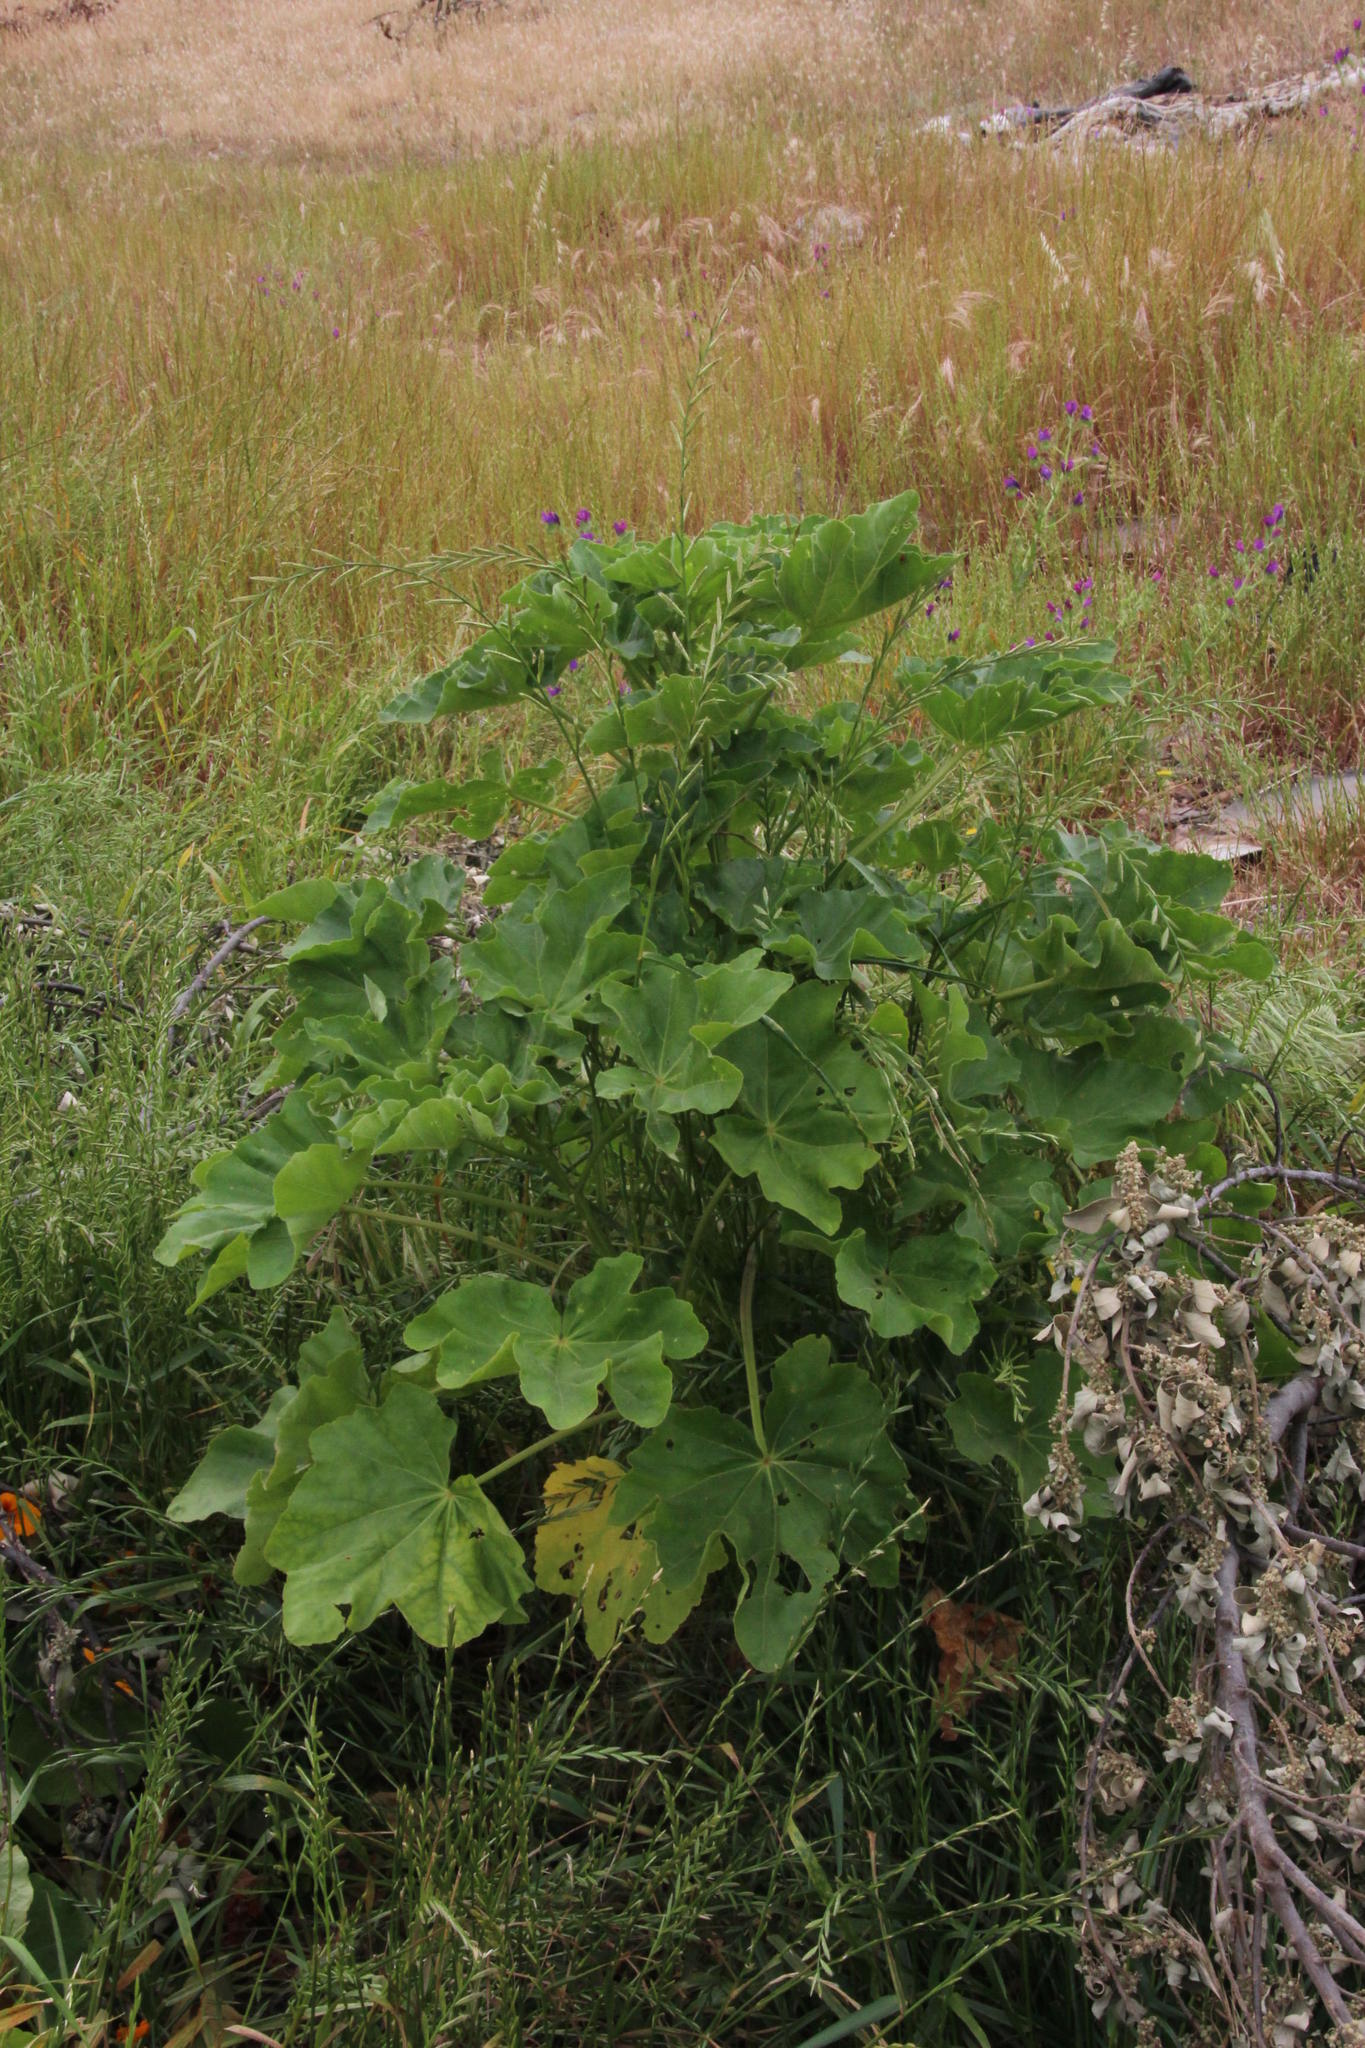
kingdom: Plantae
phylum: Tracheophyta
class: Magnoliopsida
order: Malvales
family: Malvaceae
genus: Malva
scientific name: Malva arborea
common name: Tree mallow
